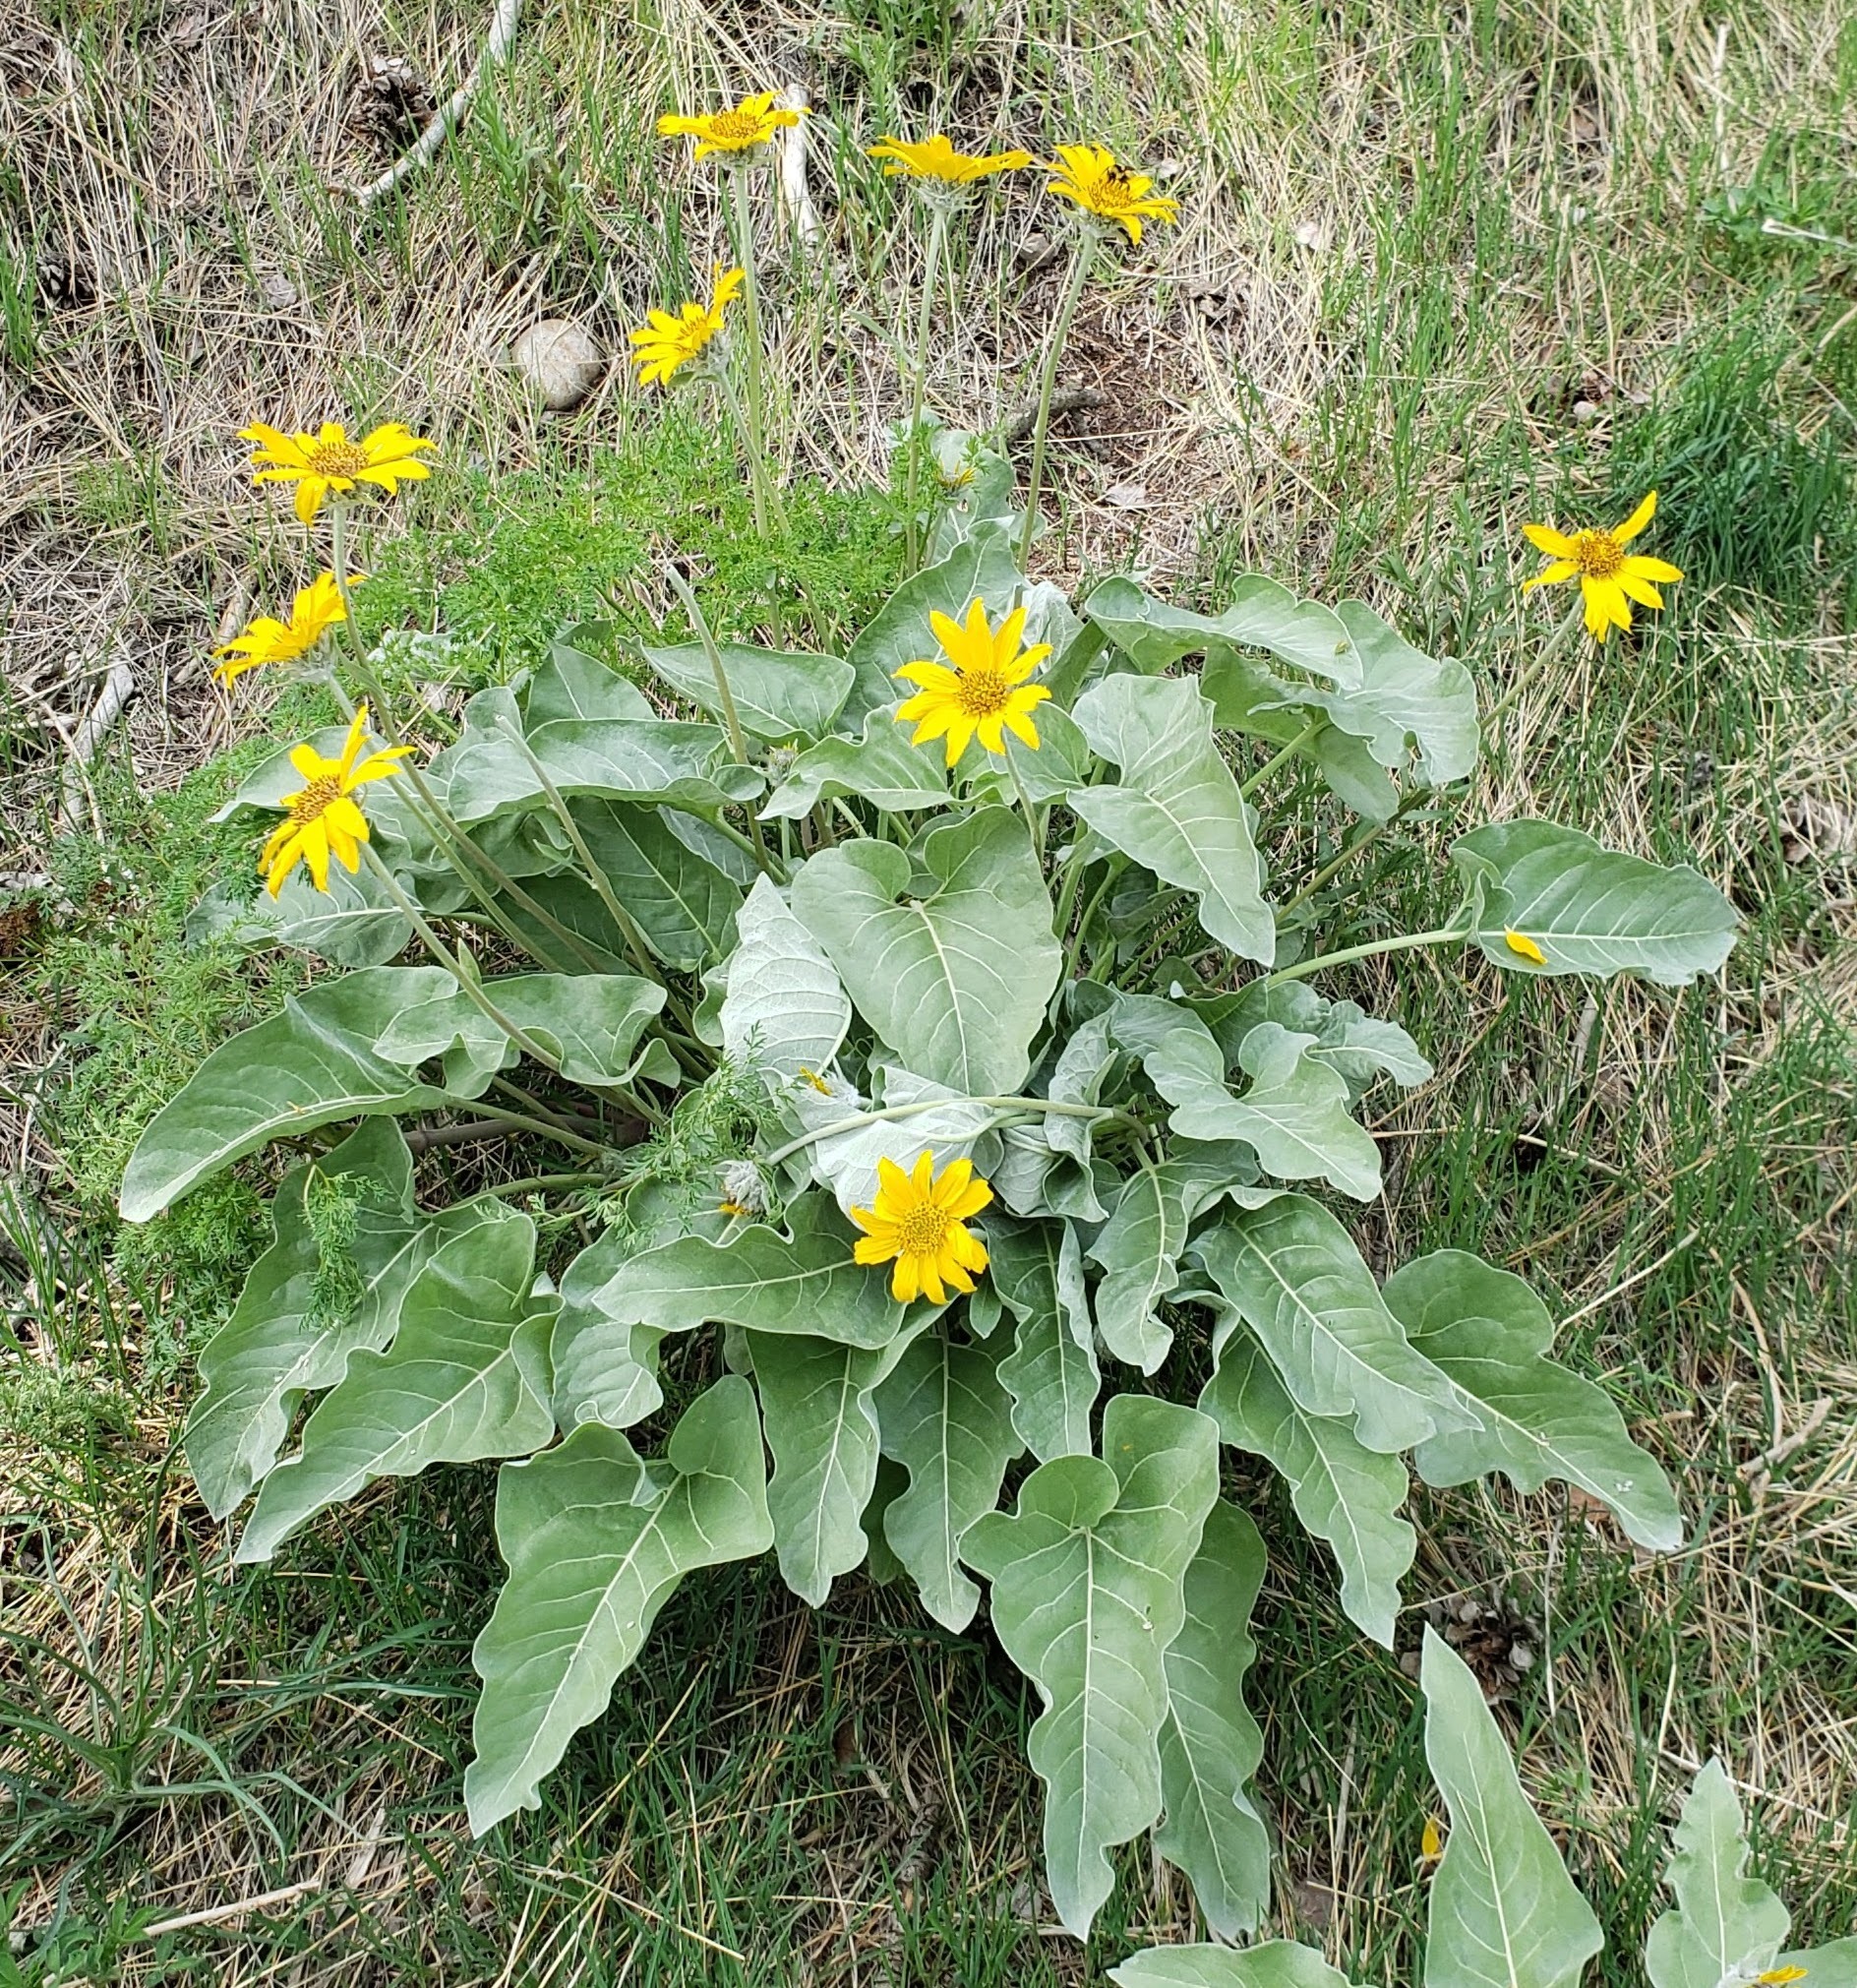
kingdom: Plantae
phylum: Tracheophyta
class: Magnoliopsida
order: Asterales
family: Asteraceae
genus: Wyethia
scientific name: Wyethia sagittata
